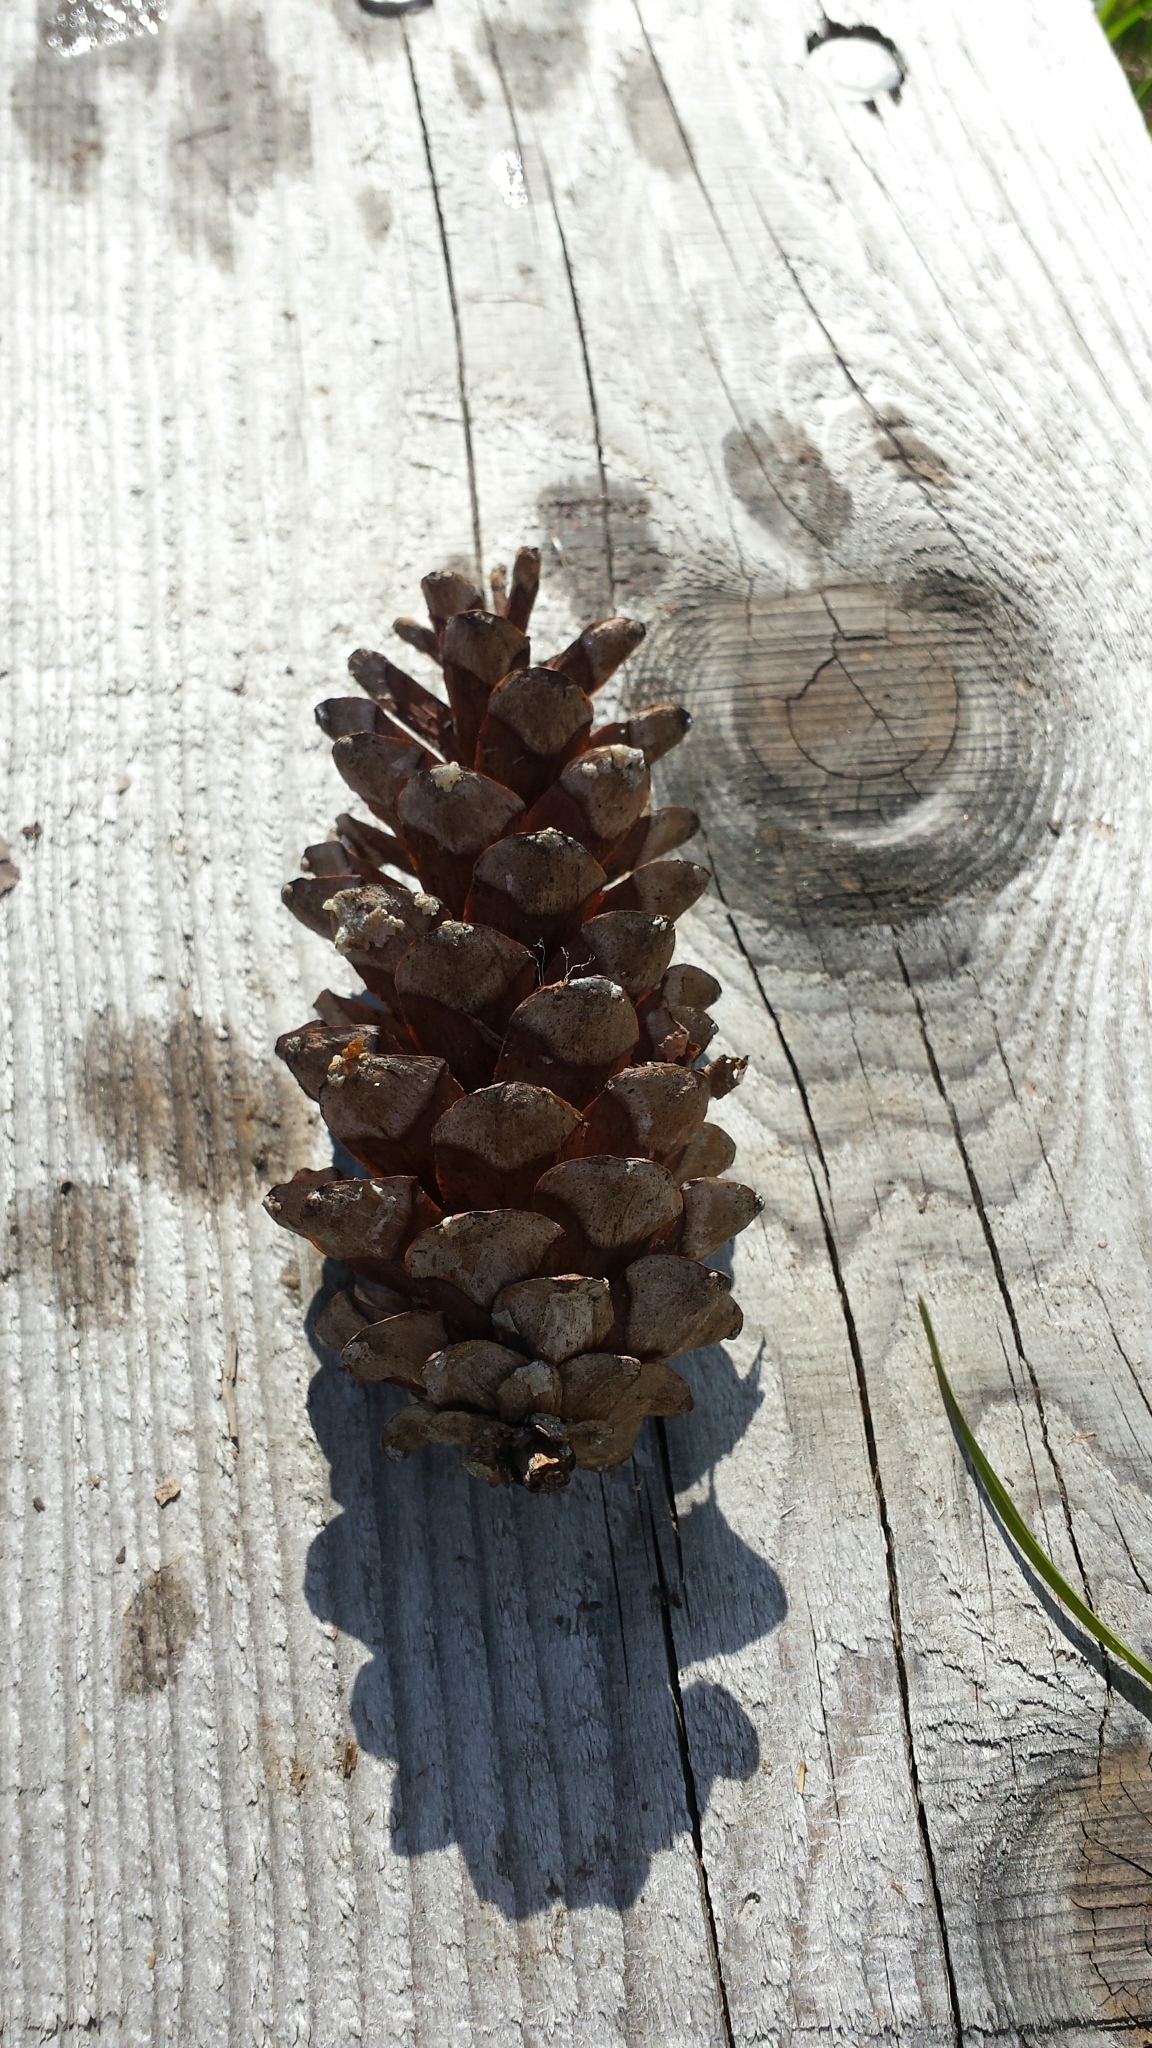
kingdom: Plantae
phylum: Tracheophyta
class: Pinopsida
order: Pinales
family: Pinaceae
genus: Pinus
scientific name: Pinus strobus
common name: Weymouth pine
